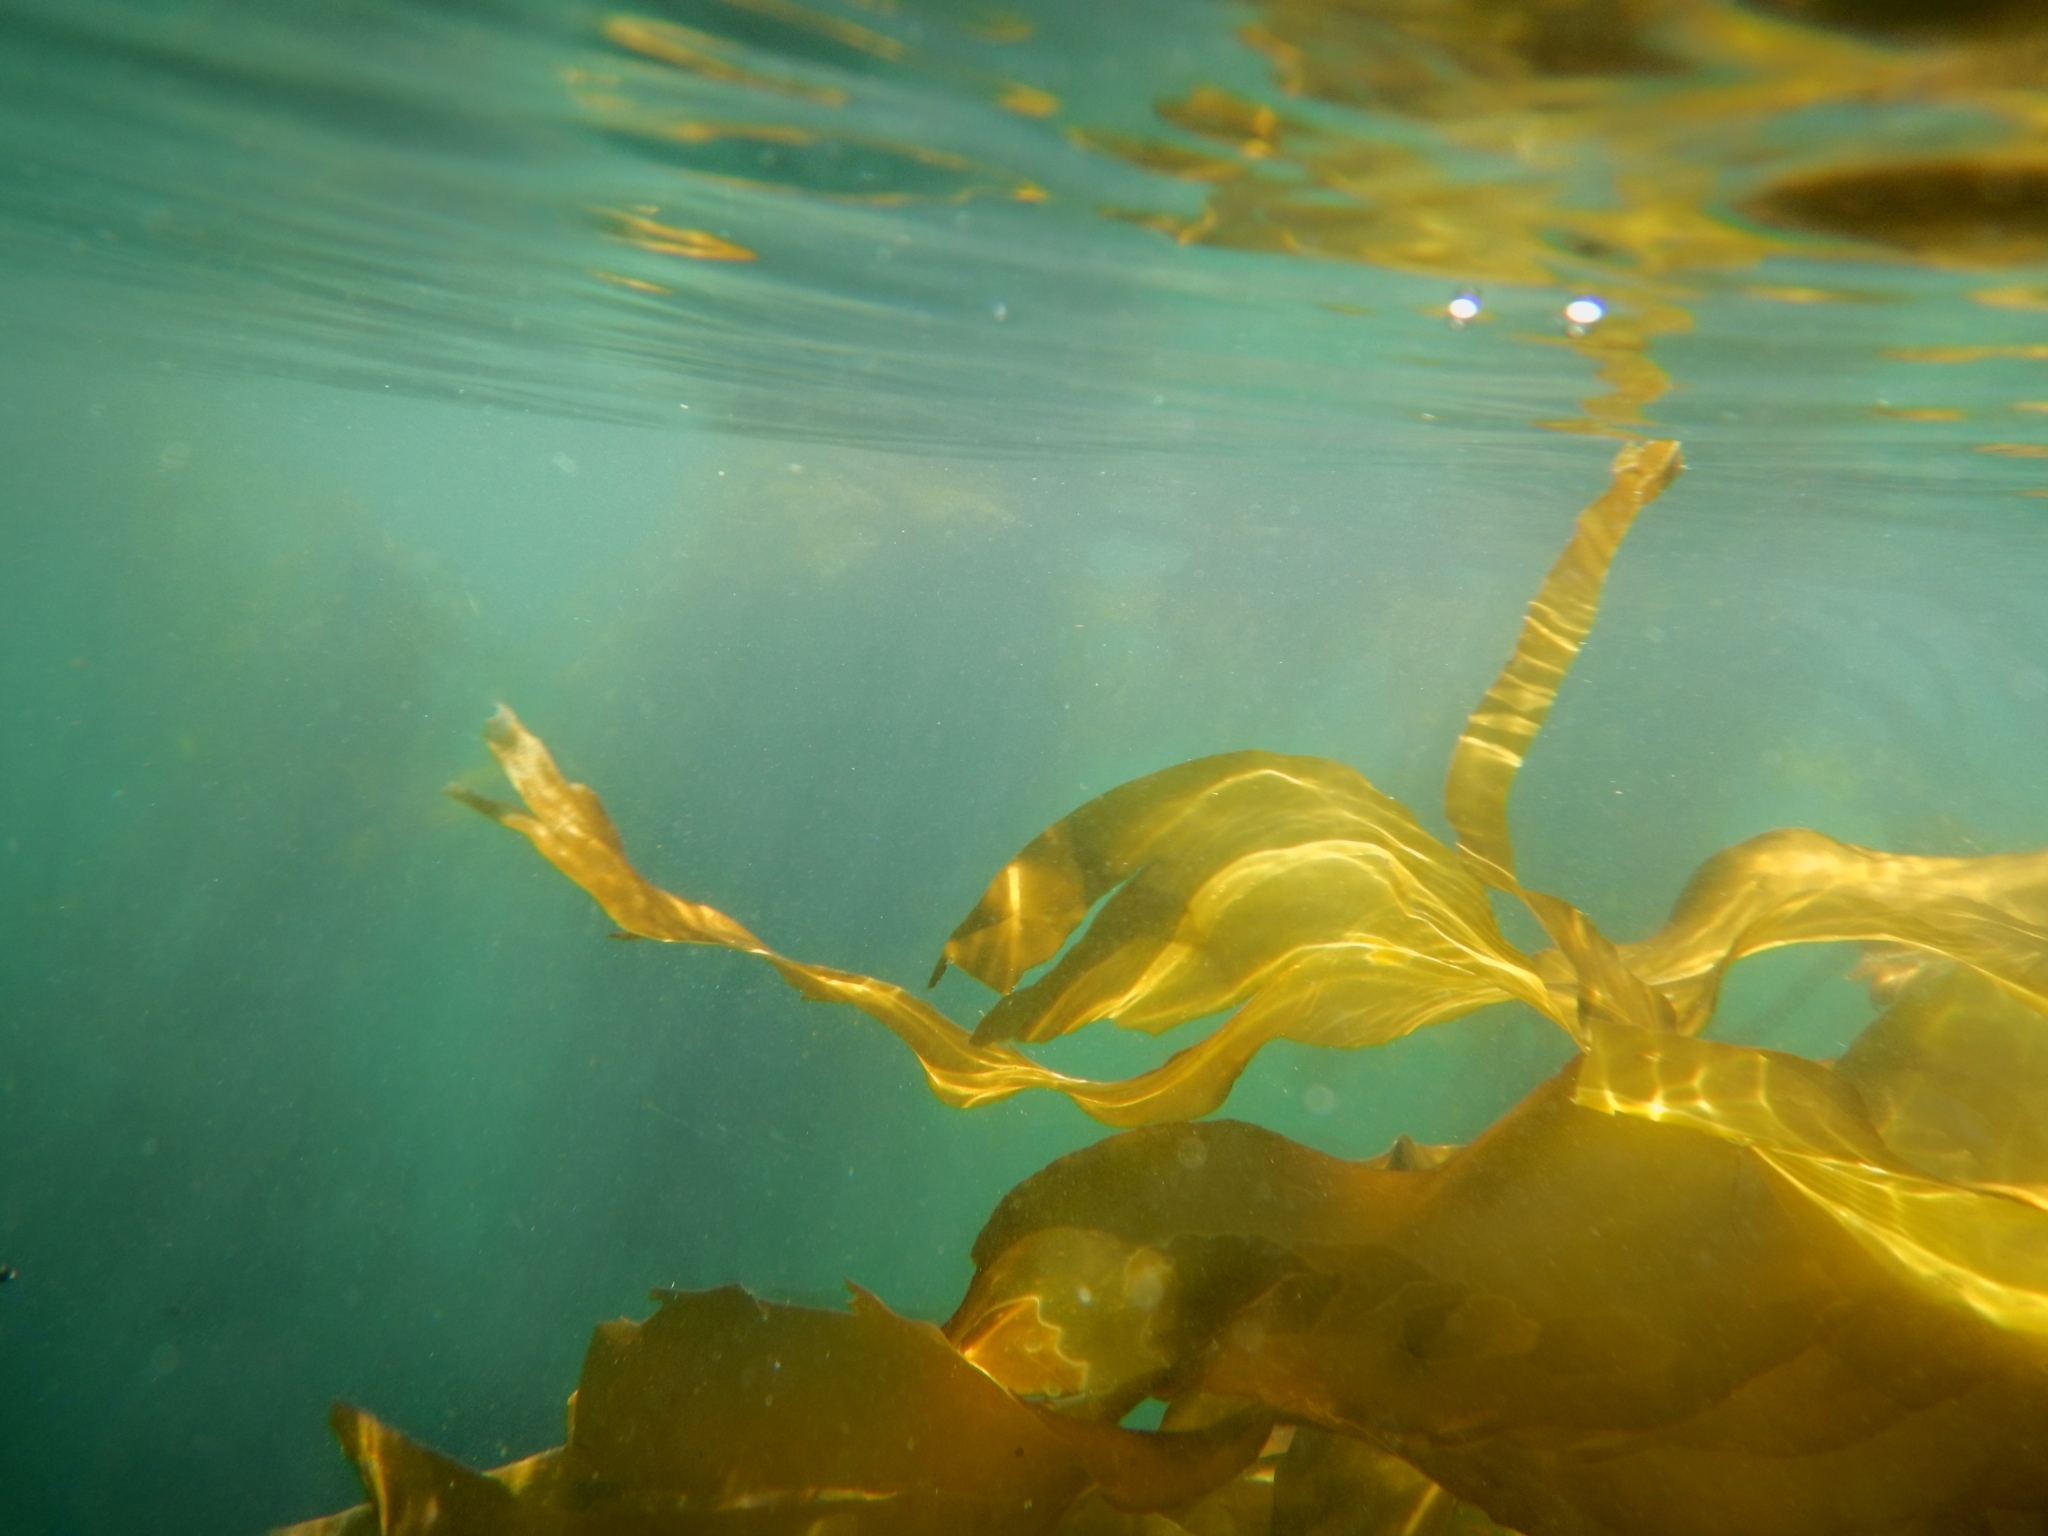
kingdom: Chromista
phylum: Ochrophyta
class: Phaeophyceae
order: Laminariales
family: Laminariaceae
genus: Nereocystis
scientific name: Nereocystis luetkeana
